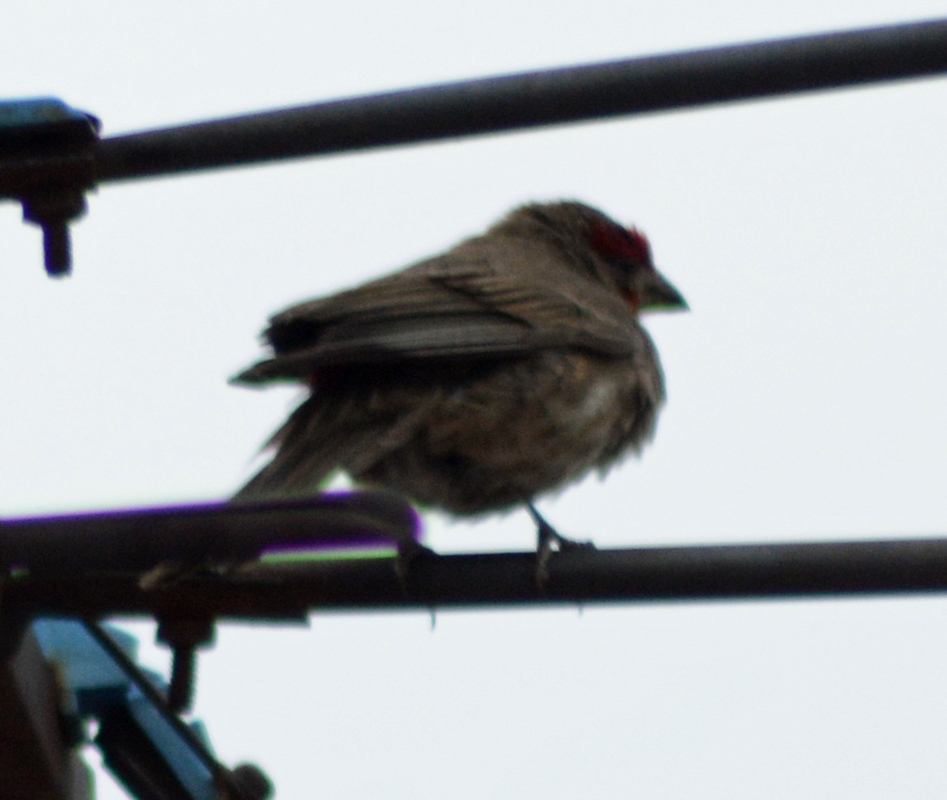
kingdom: Animalia
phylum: Chordata
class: Aves
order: Passeriformes
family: Fringillidae
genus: Haemorhous
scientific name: Haemorhous mexicanus
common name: House finch
